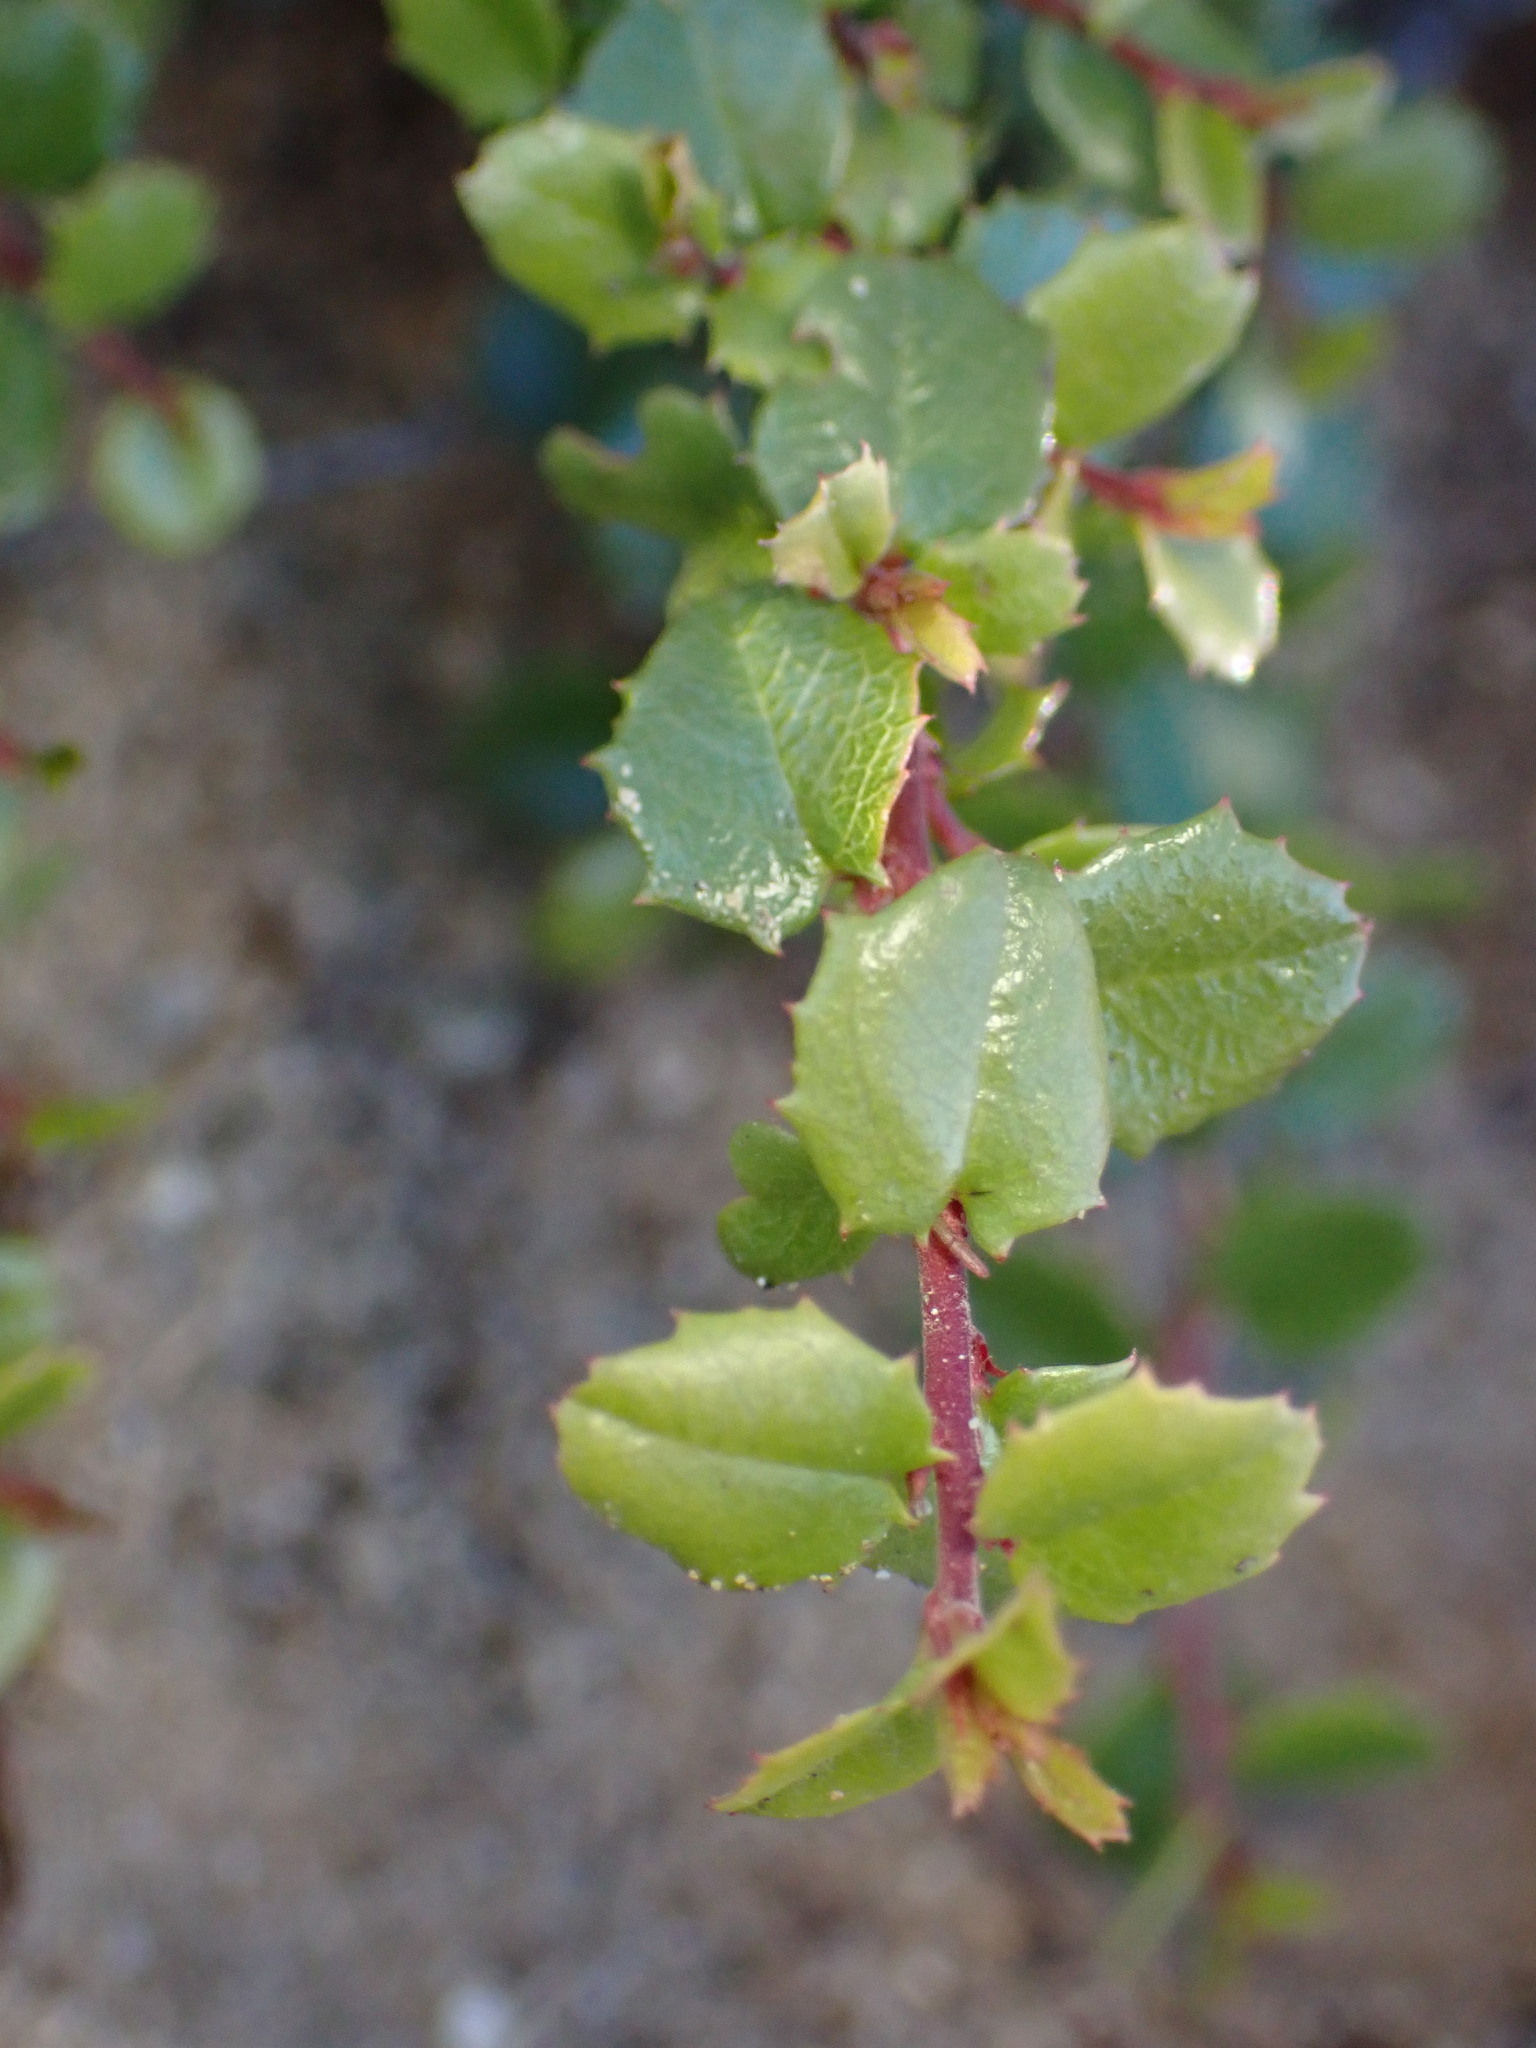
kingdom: Plantae
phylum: Tracheophyta
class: Magnoliopsida
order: Rosales
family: Rhamnaceae
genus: Endotropis
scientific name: Endotropis crocea
